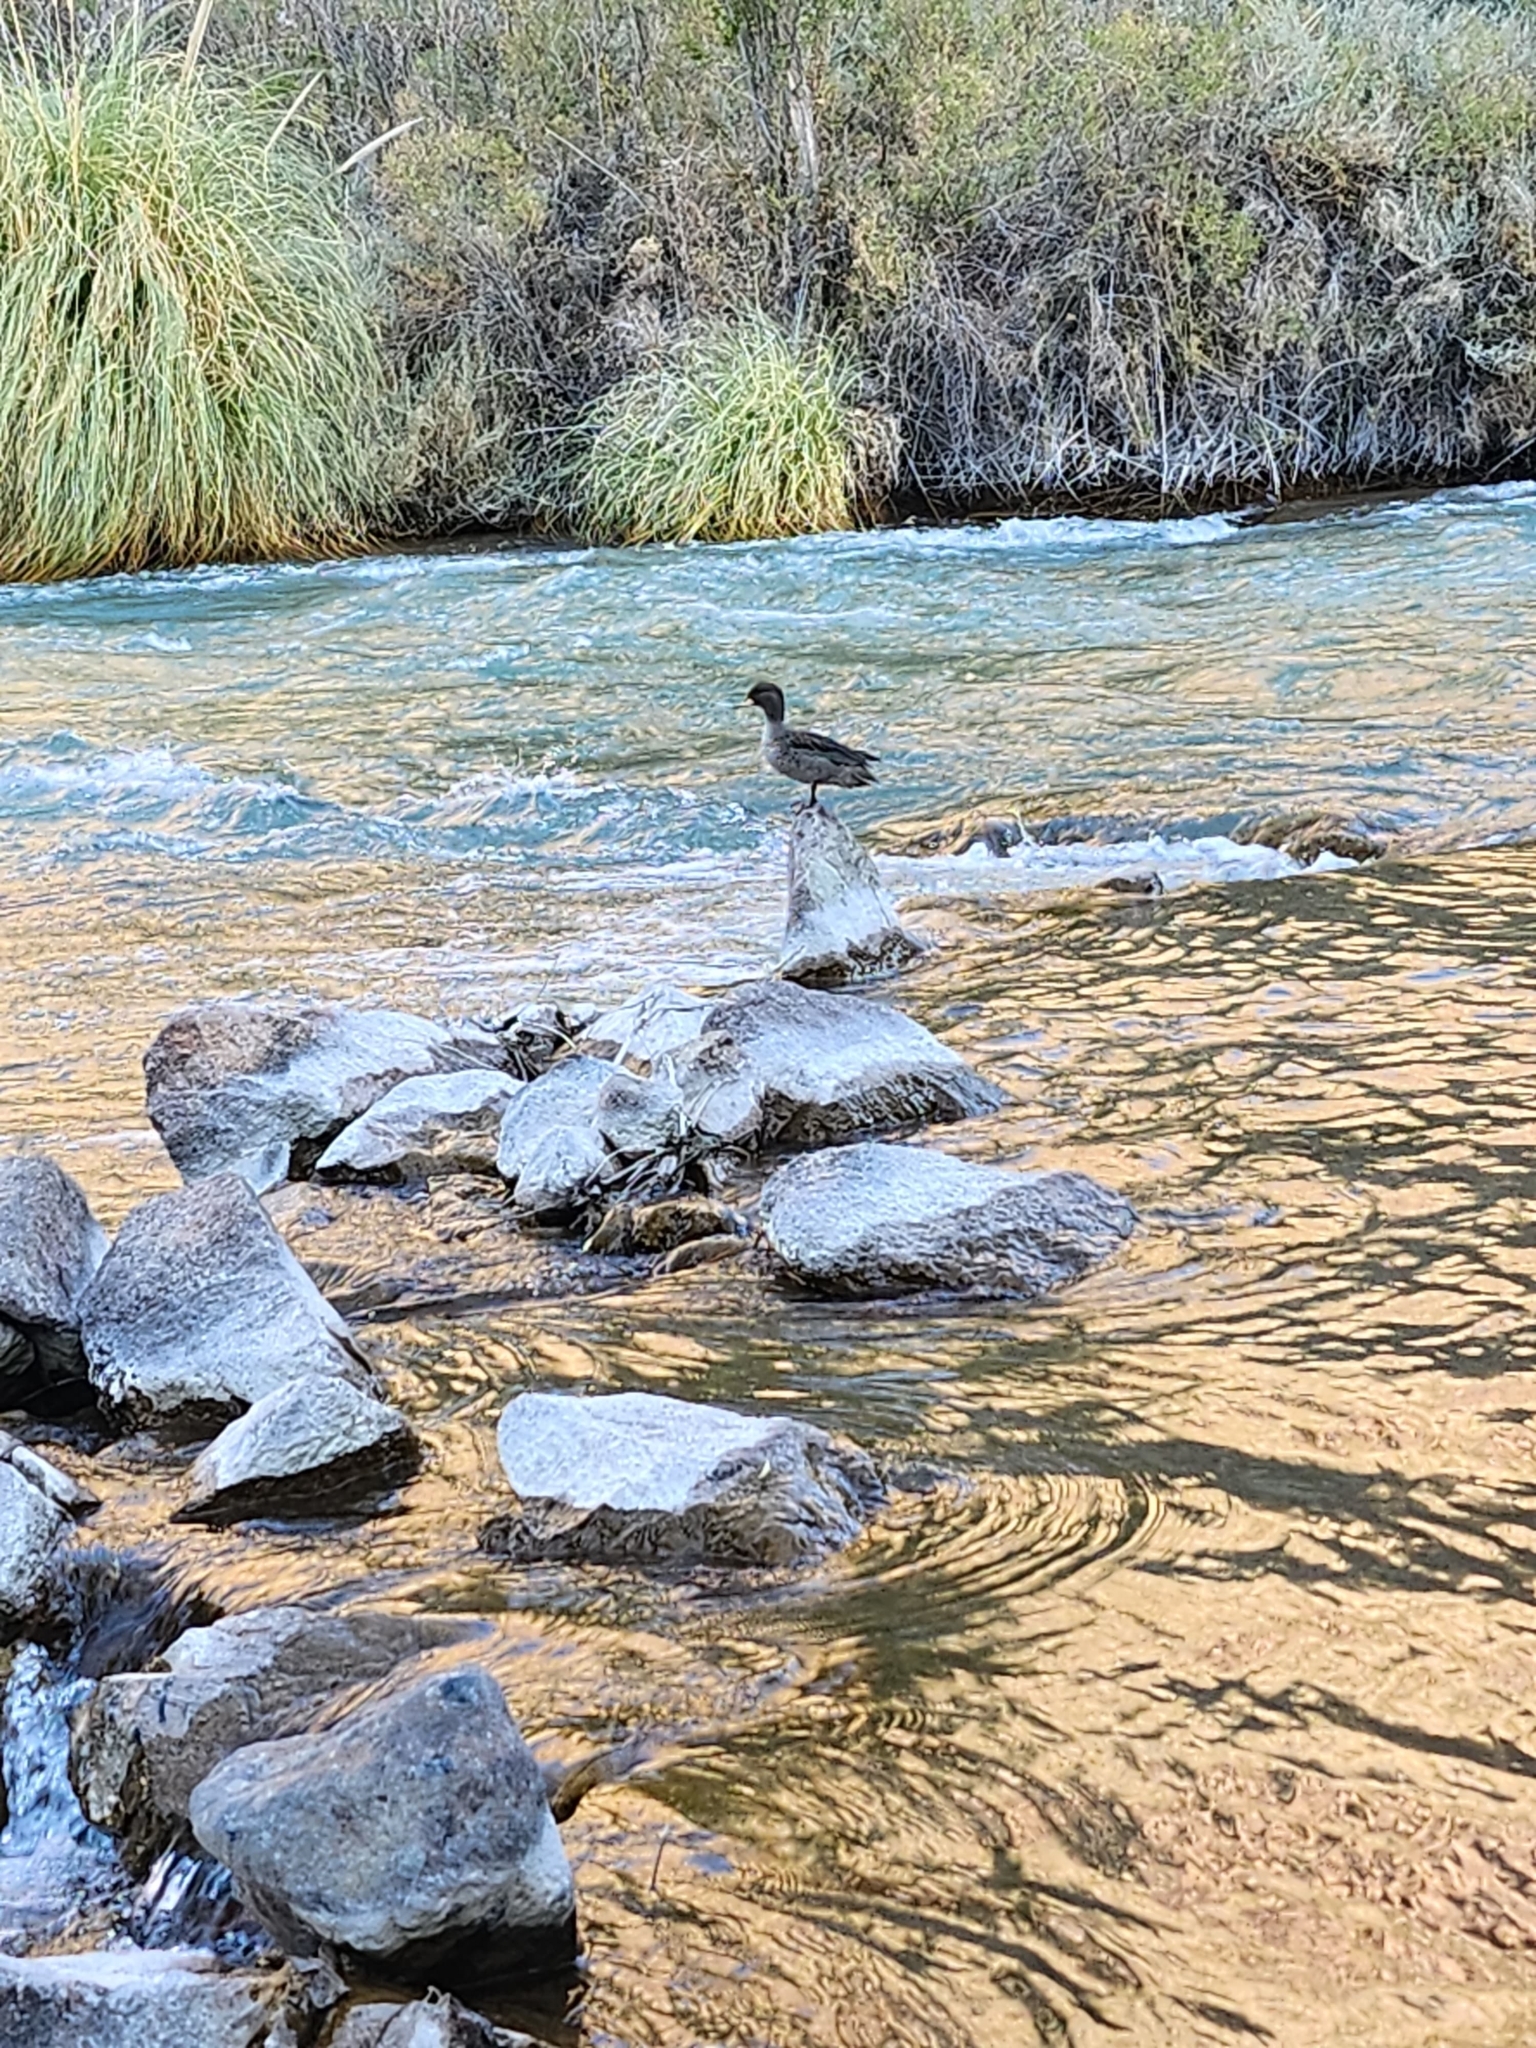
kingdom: Animalia
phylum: Chordata
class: Aves
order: Anseriformes
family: Anatidae
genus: Anas
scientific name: Anas flavirostris
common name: Yellow-billed teal
